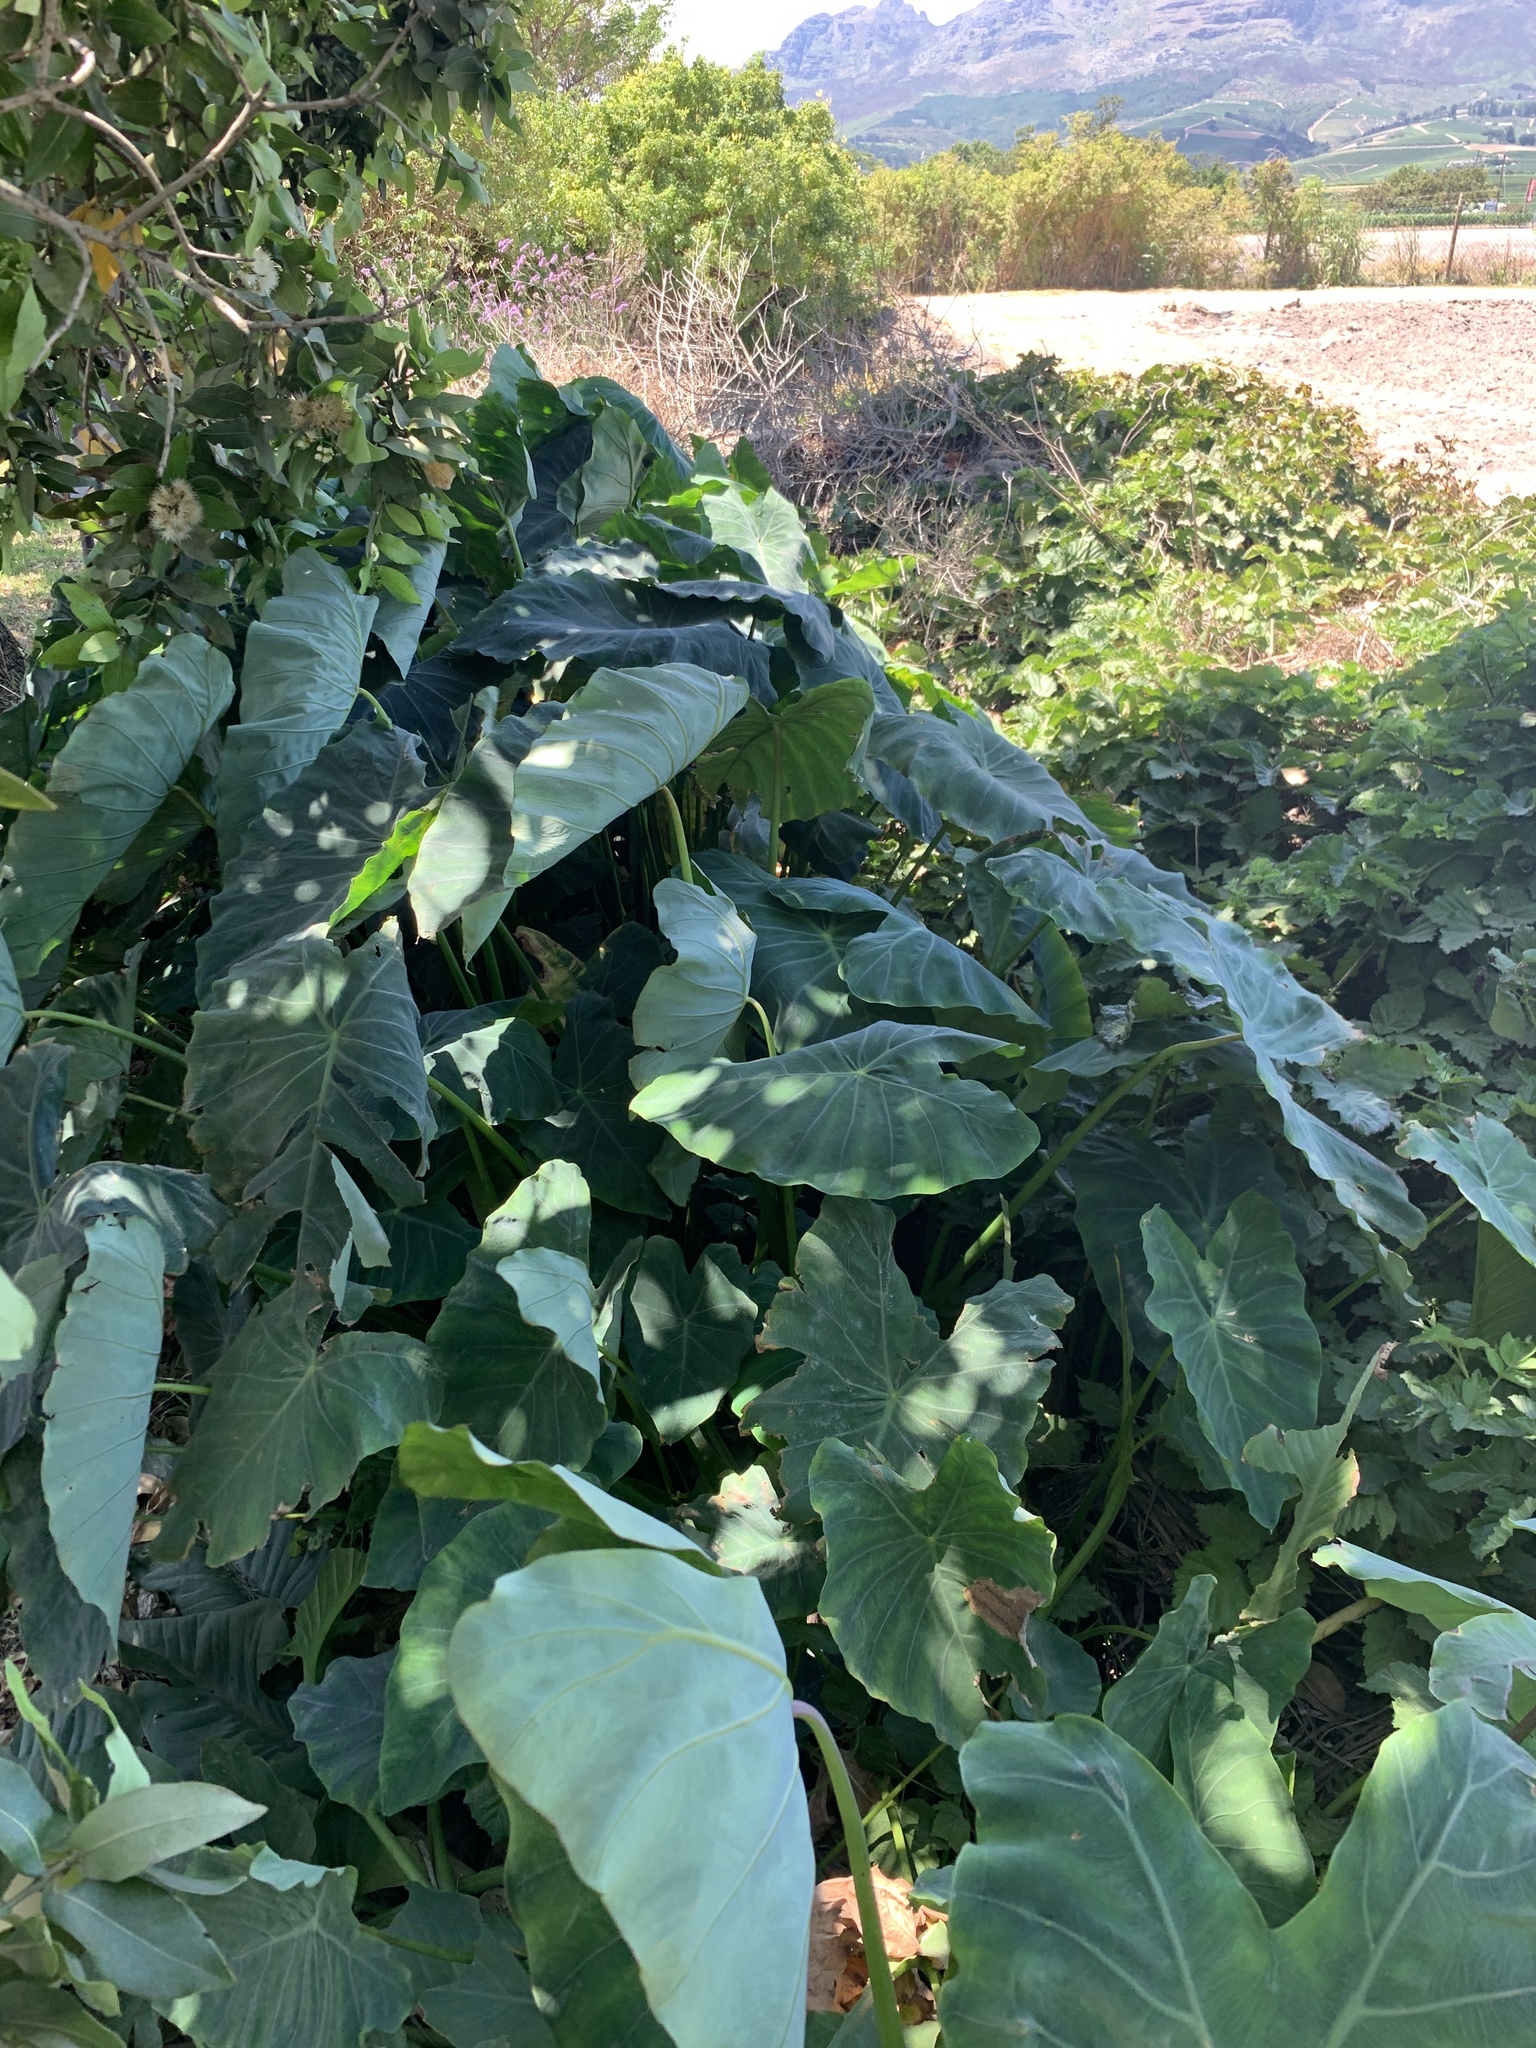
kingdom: Plantae
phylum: Tracheophyta
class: Liliopsida
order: Alismatales
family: Araceae
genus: Colocasia
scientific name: Colocasia esculenta
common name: Taro
